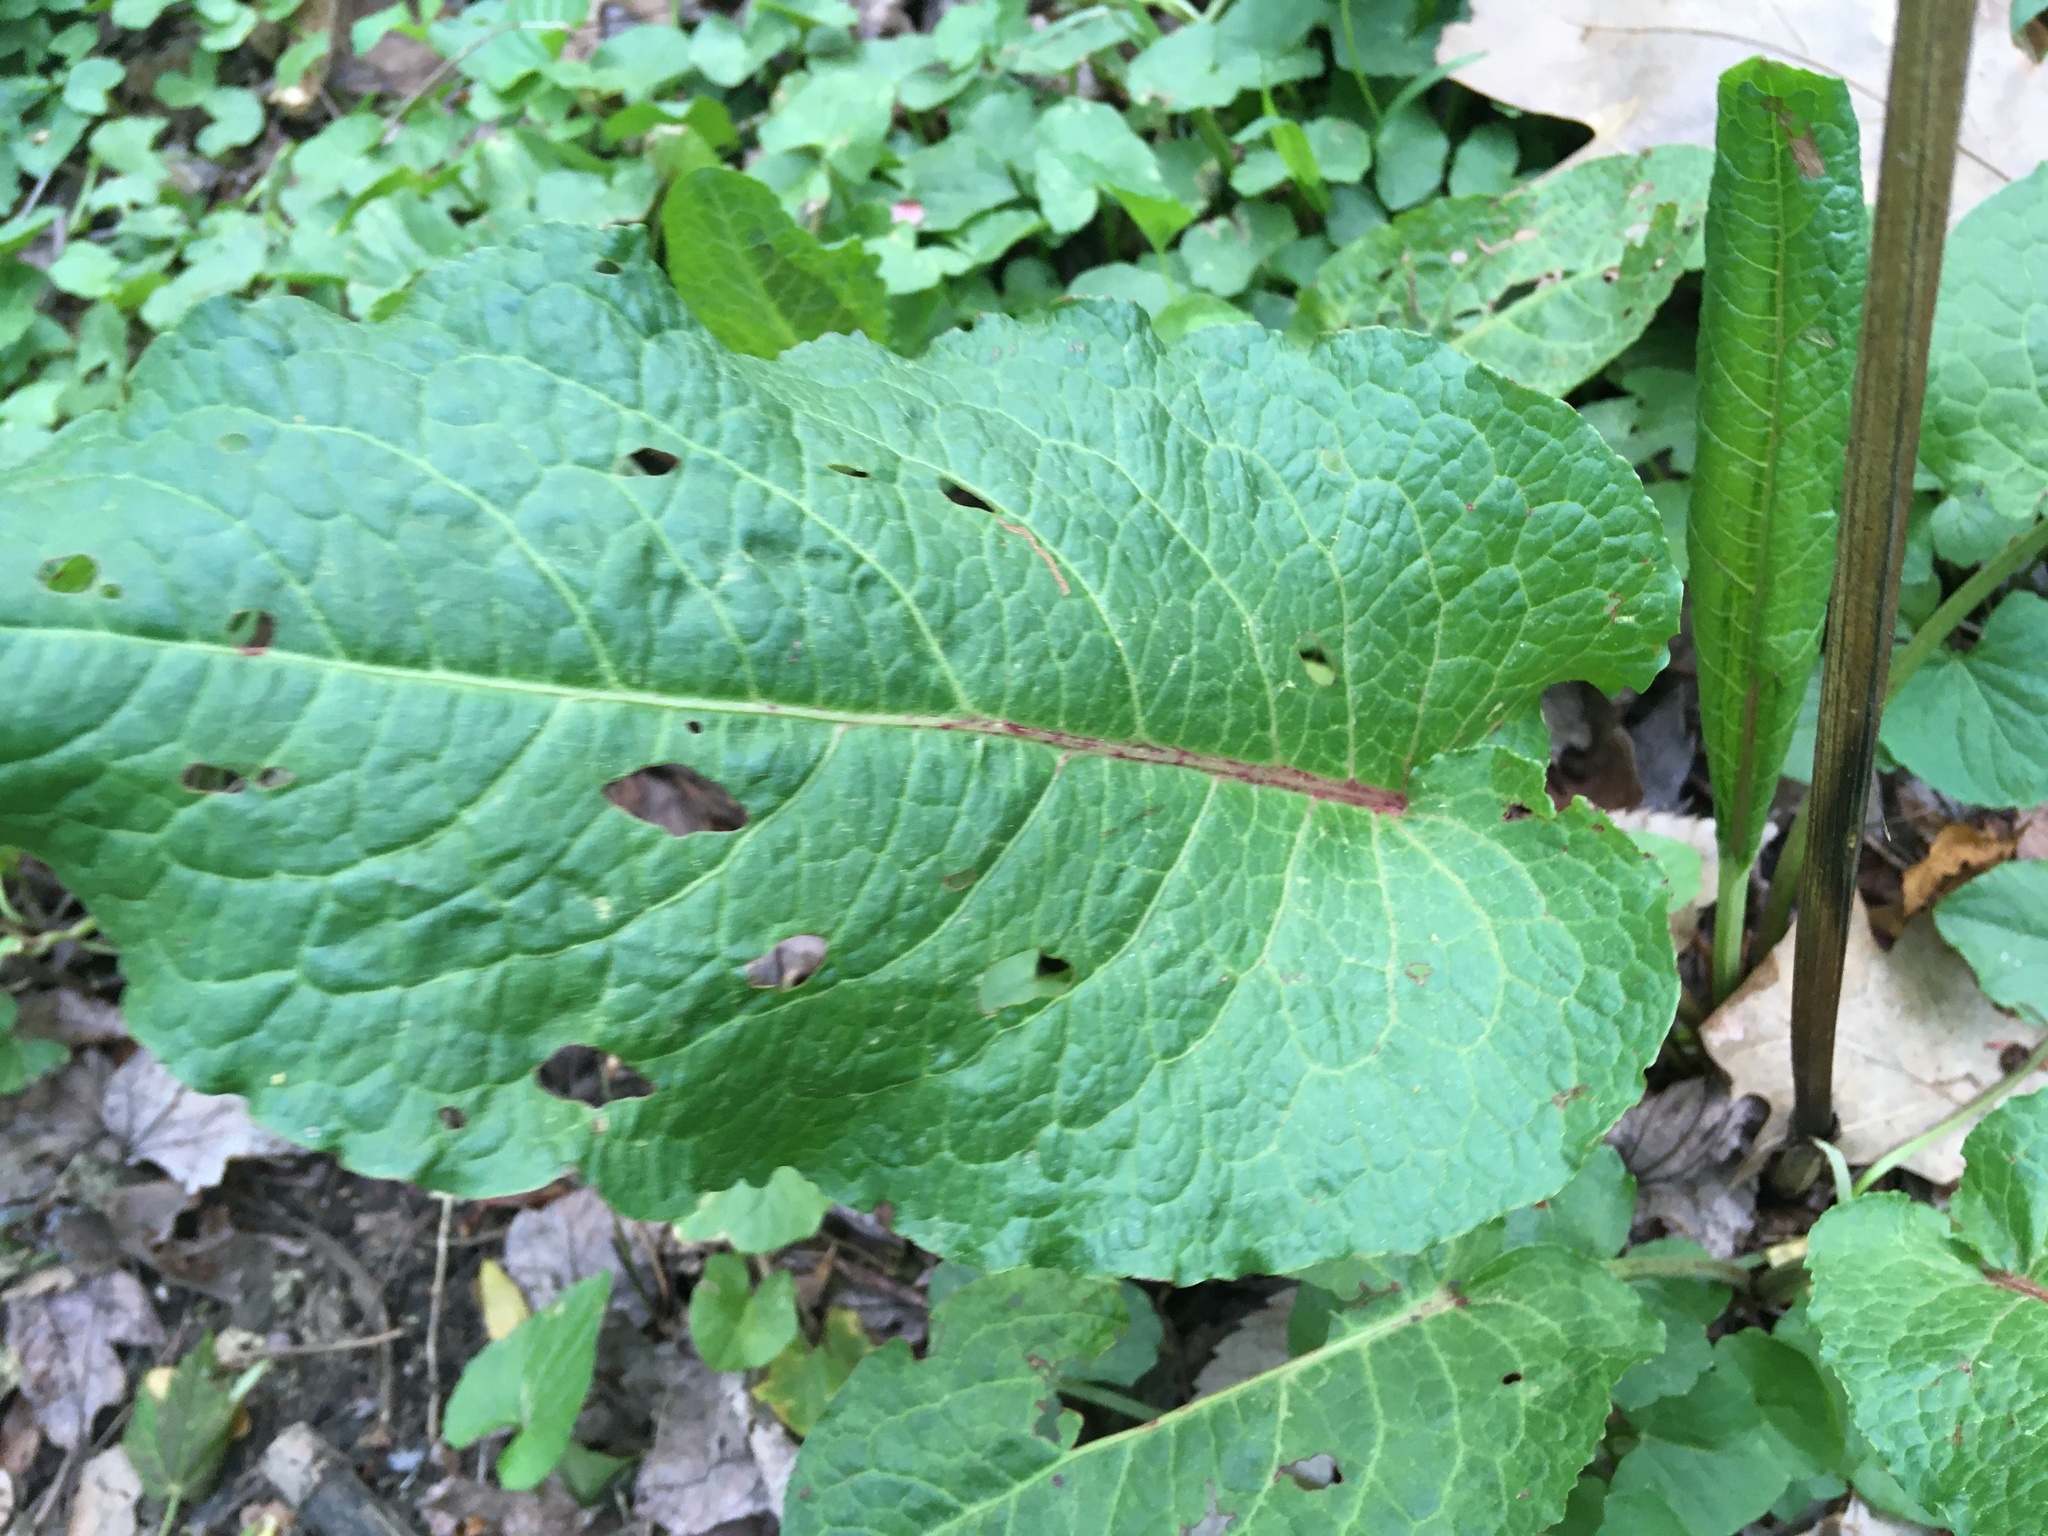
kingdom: Plantae
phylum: Tracheophyta
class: Magnoliopsida
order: Caryophyllales
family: Polygonaceae
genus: Rumex
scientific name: Rumex obtusifolius
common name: Bitter dock
